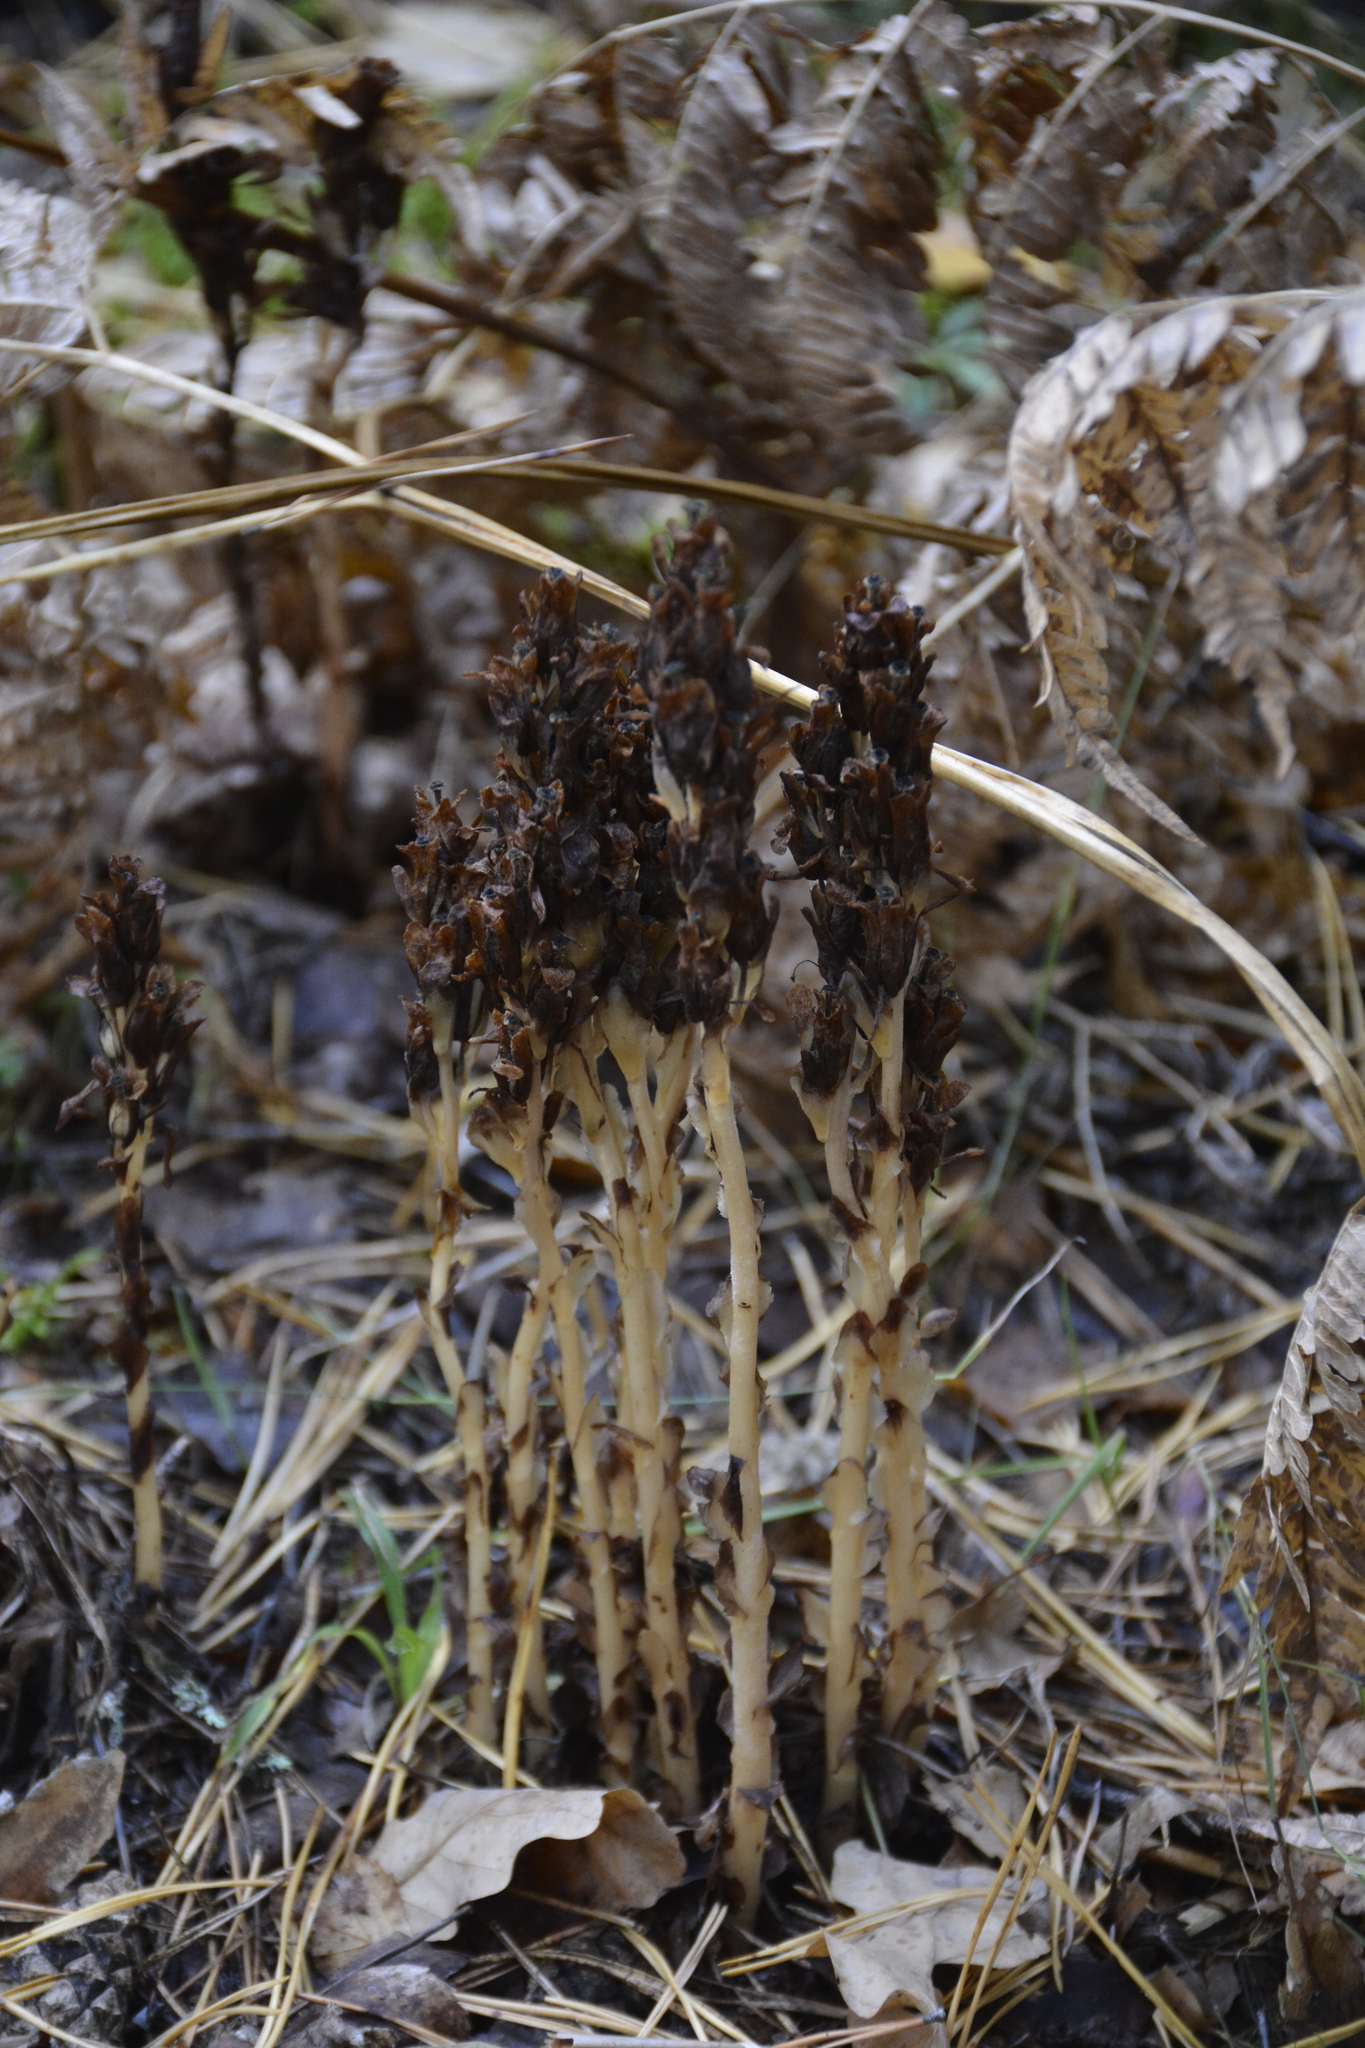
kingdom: Plantae
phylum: Tracheophyta
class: Magnoliopsida
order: Ericales
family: Ericaceae
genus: Hypopitys
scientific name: Hypopitys monotropa
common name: Yellow bird's-nest
